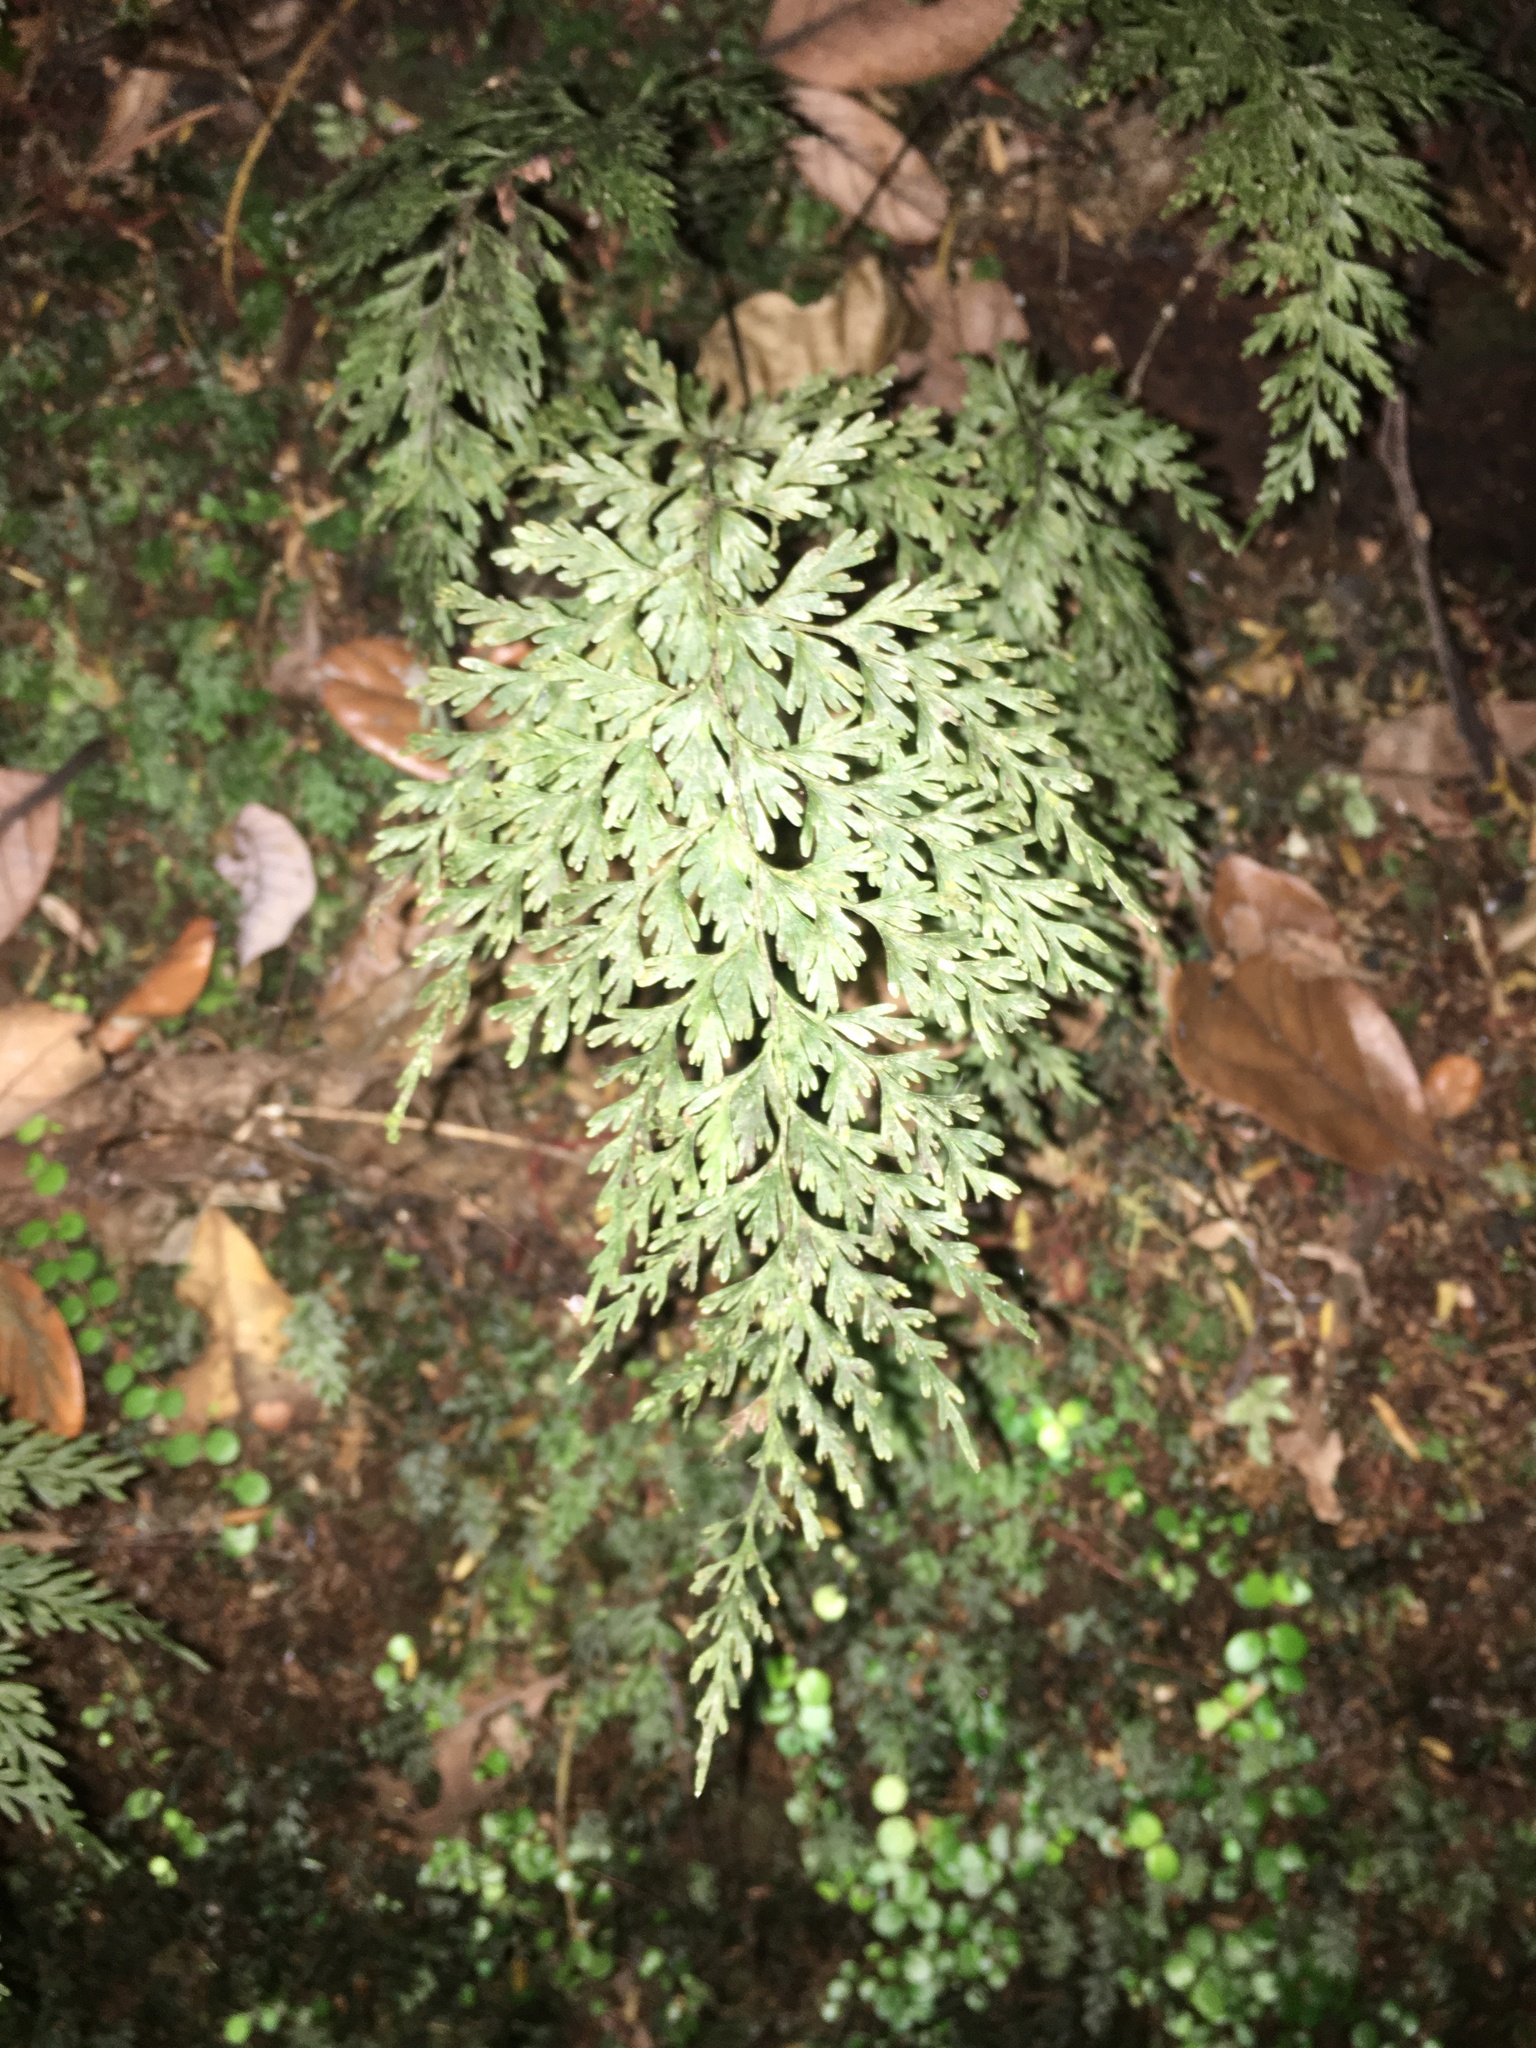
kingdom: Plantae
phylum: Tracheophyta
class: Polypodiopsida
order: Hymenophyllales
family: Hymenophyllaceae
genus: Hymenophyllum
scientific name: Hymenophyllum demissum
